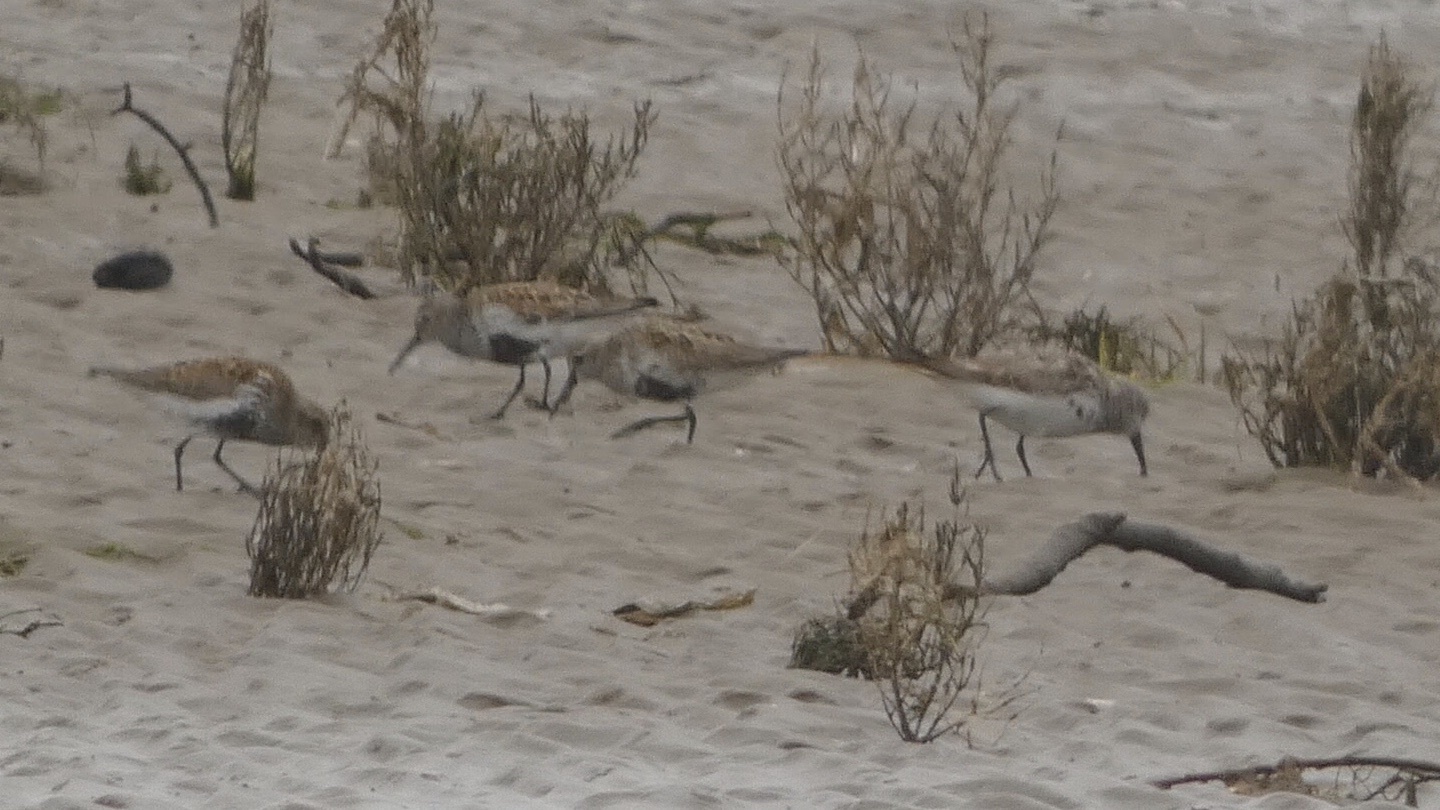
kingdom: Animalia
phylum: Chordata
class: Aves
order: Charadriiformes
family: Scolopacidae
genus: Calidris
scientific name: Calidris alpina
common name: Dunlin
